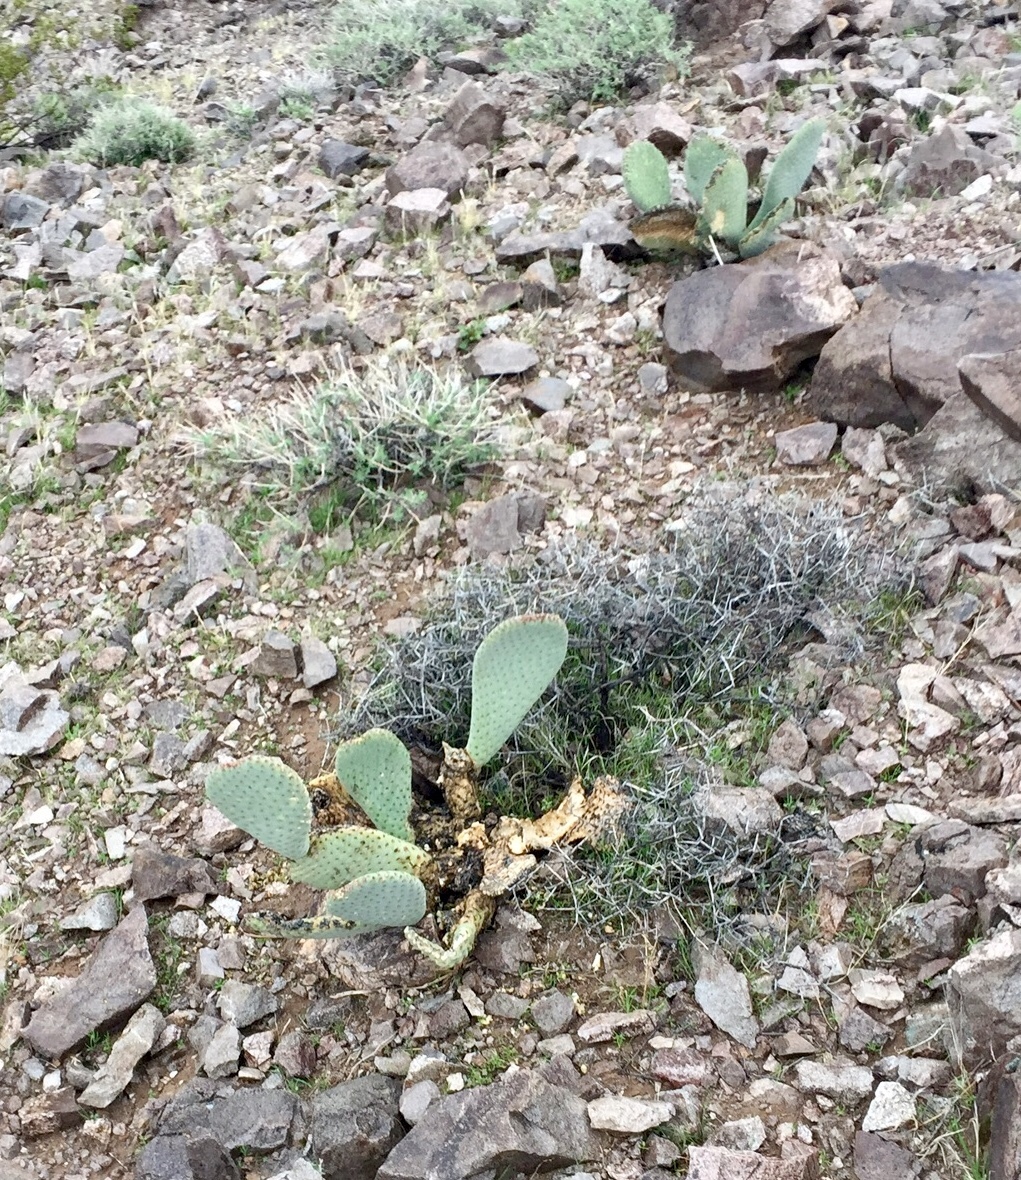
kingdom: Plantae
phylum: Tracheophyta
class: Magnoliopsida
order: Caryophyllales
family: Cactaceae
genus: Opuntia
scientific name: Opuntia basilaris
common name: Beavertail prickly-pear
